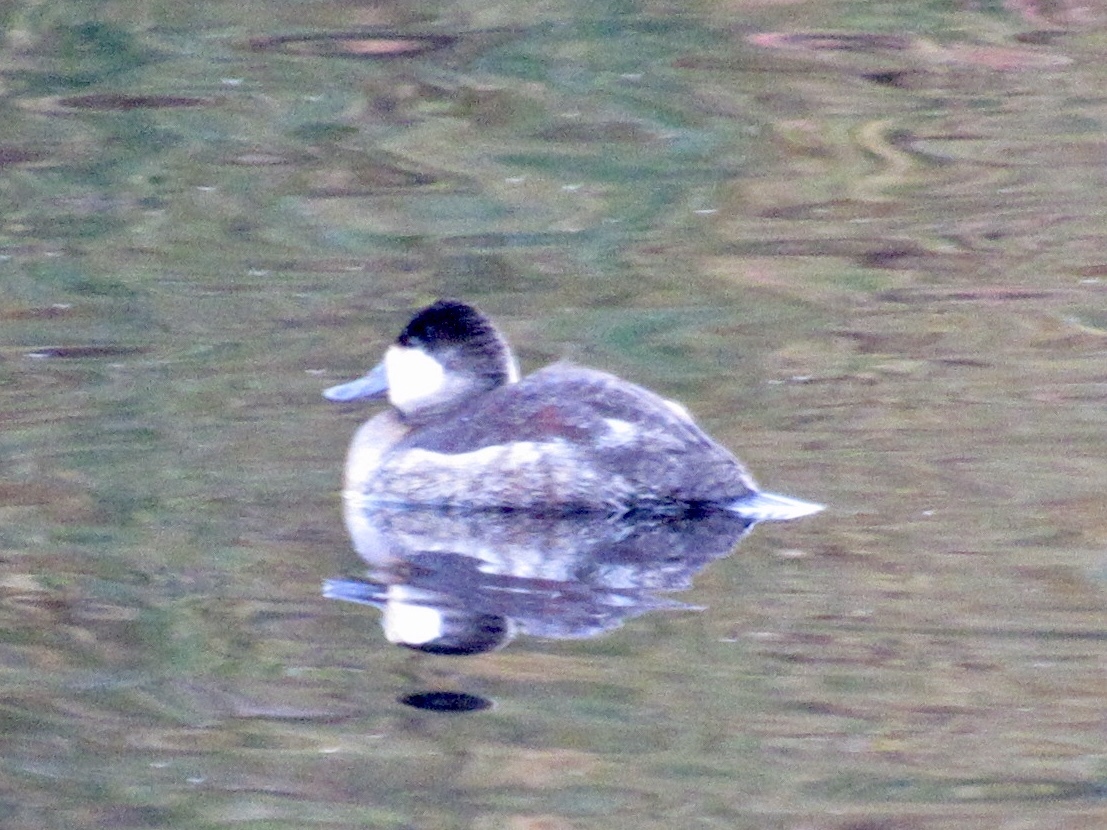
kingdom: Animalia
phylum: Chordata
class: Aves
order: Anseriformes
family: Anatidae
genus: Oxyura
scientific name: Oxyura jamaicensis
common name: Ruddy duck
